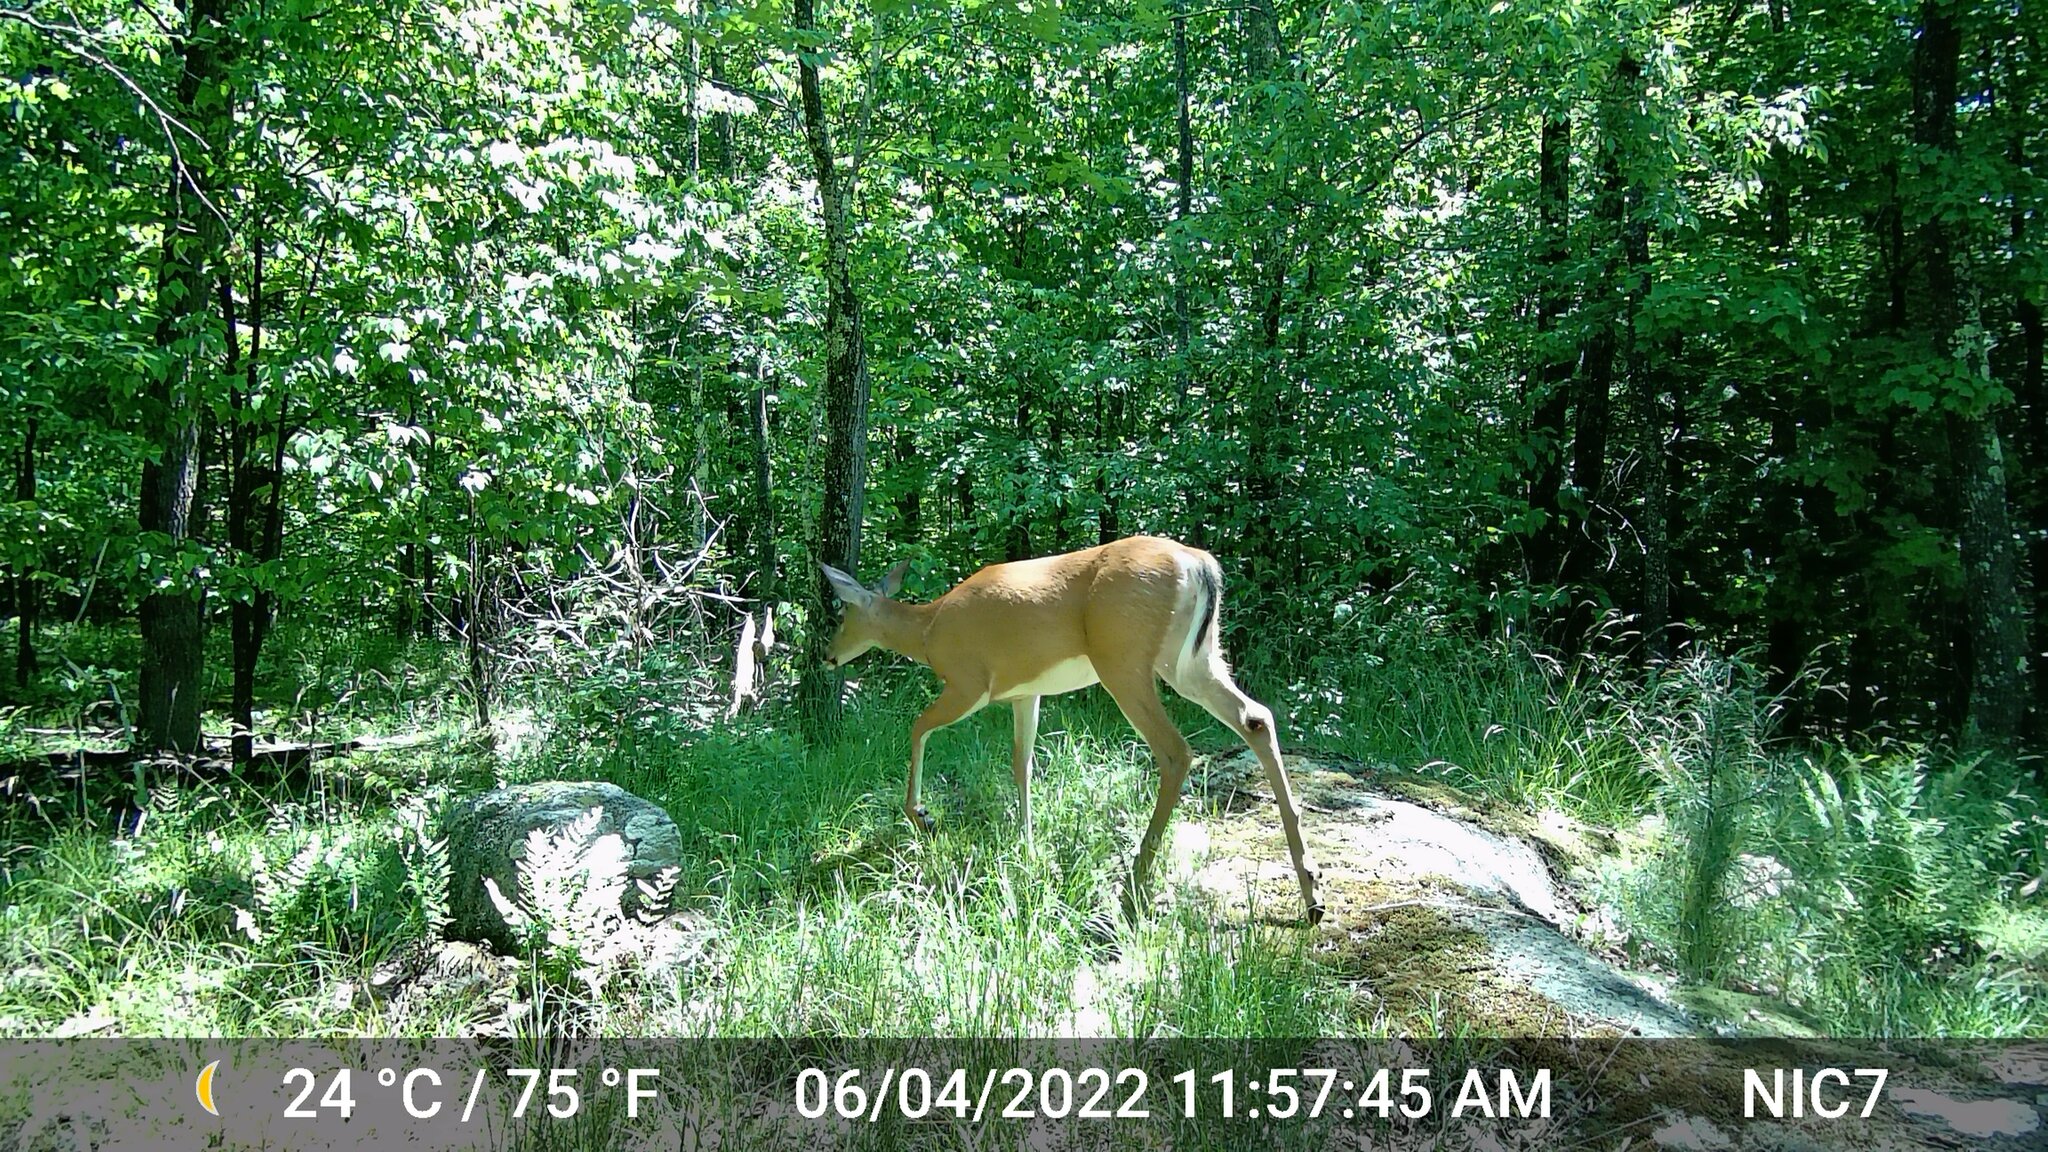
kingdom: Animalia
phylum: Chordata
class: Mammalia
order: Artiodactyla
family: Cervidae
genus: Odocoileus
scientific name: Odocoileus virginianus
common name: White-tailed deer
